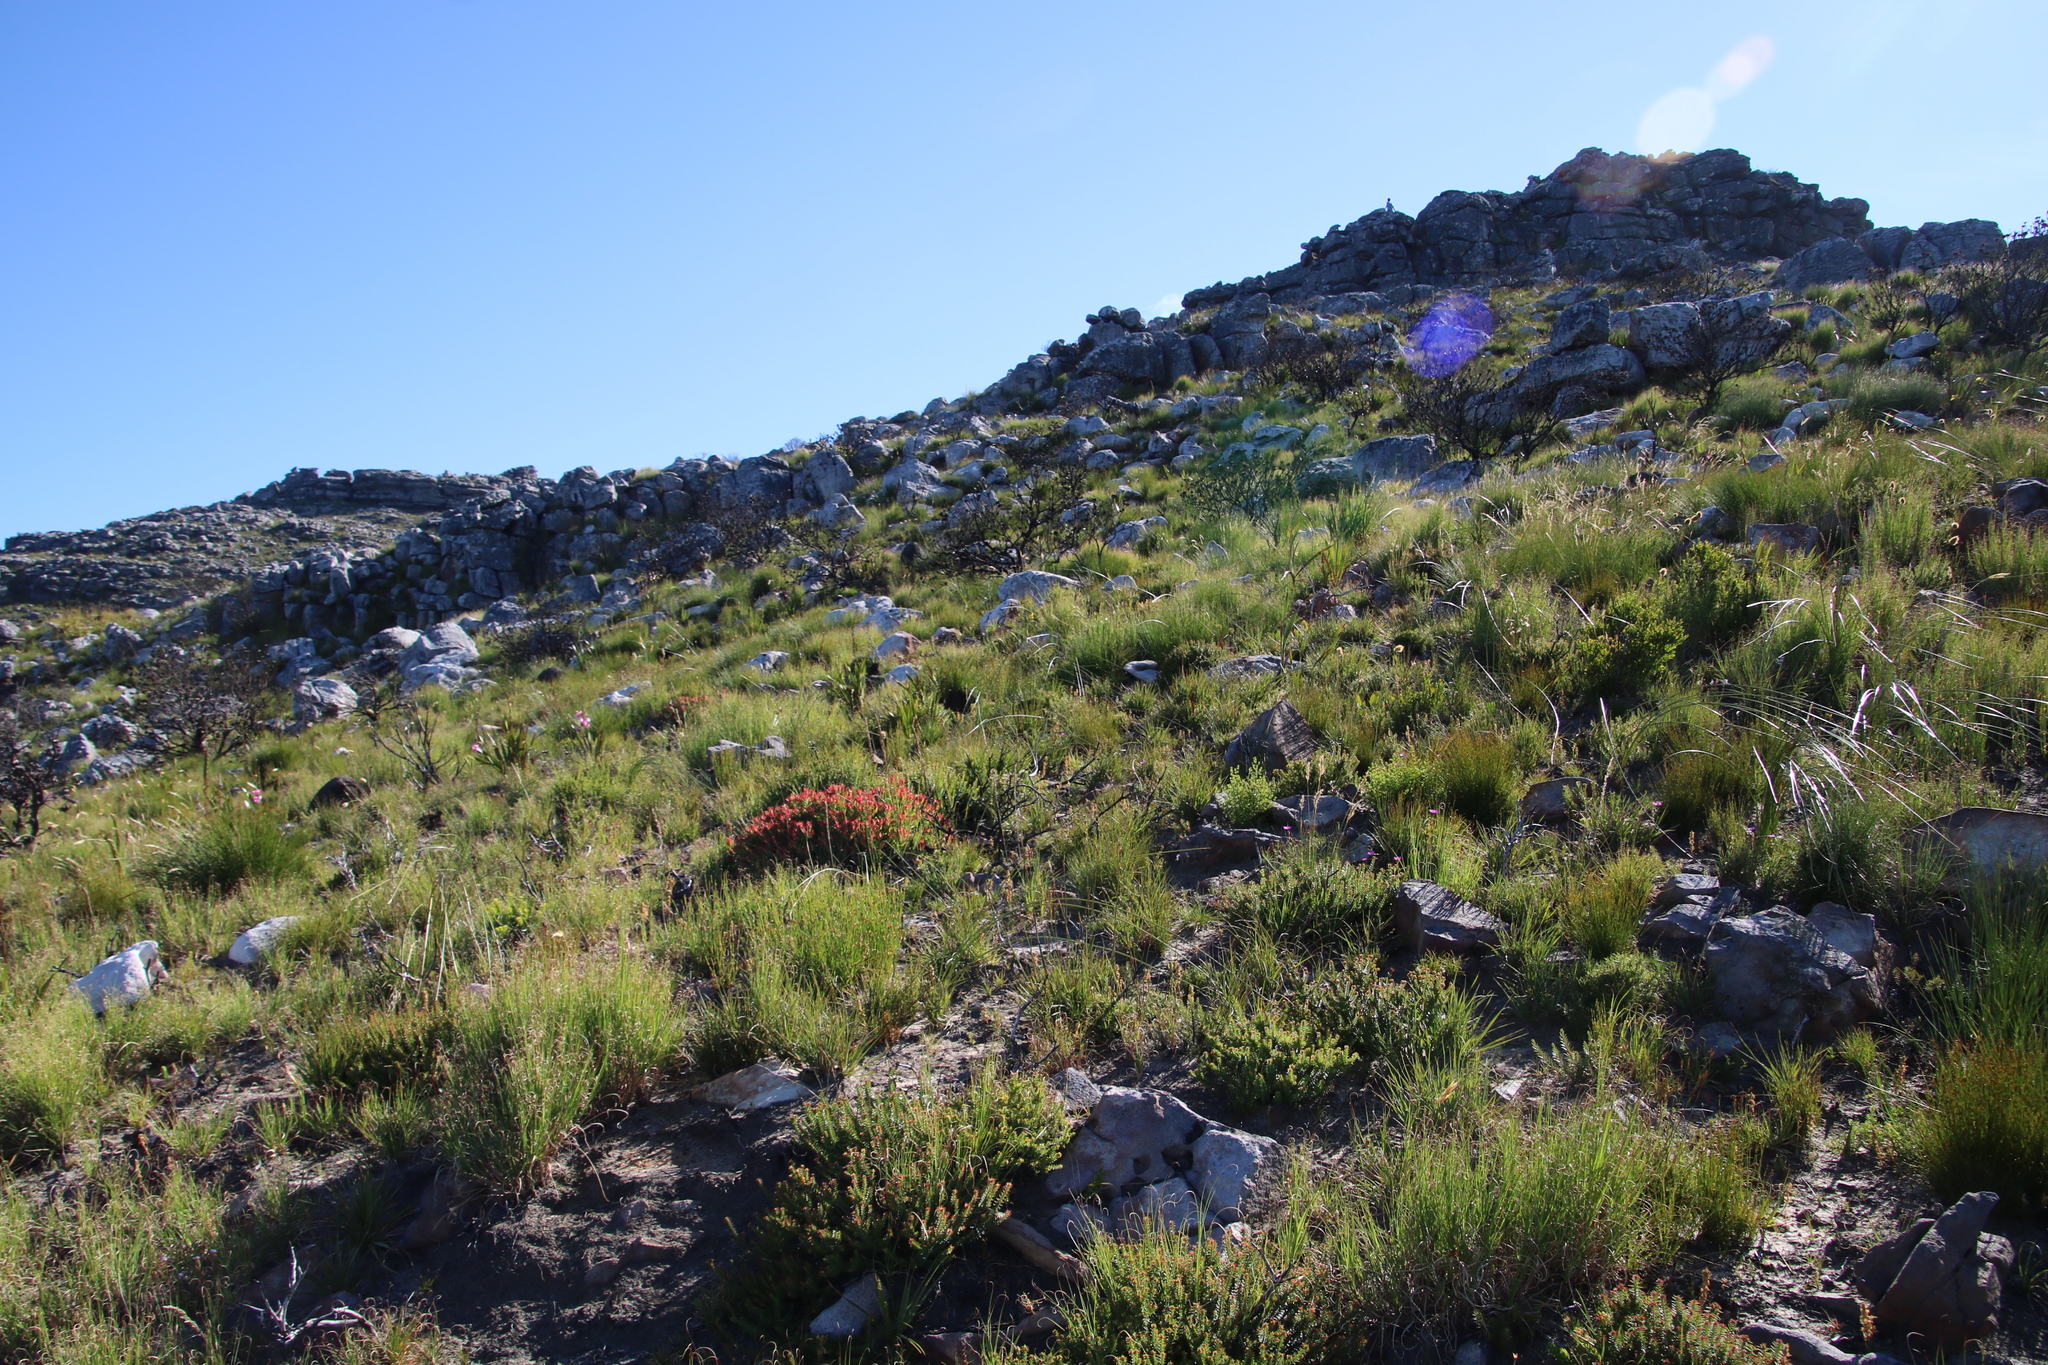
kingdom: Plantae
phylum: Tracheophyta
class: Magnoliopsida
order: Proteales
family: Proteaceae
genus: Leucadendron
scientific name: Leucadendron salignum
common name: Common sunshine conebush
